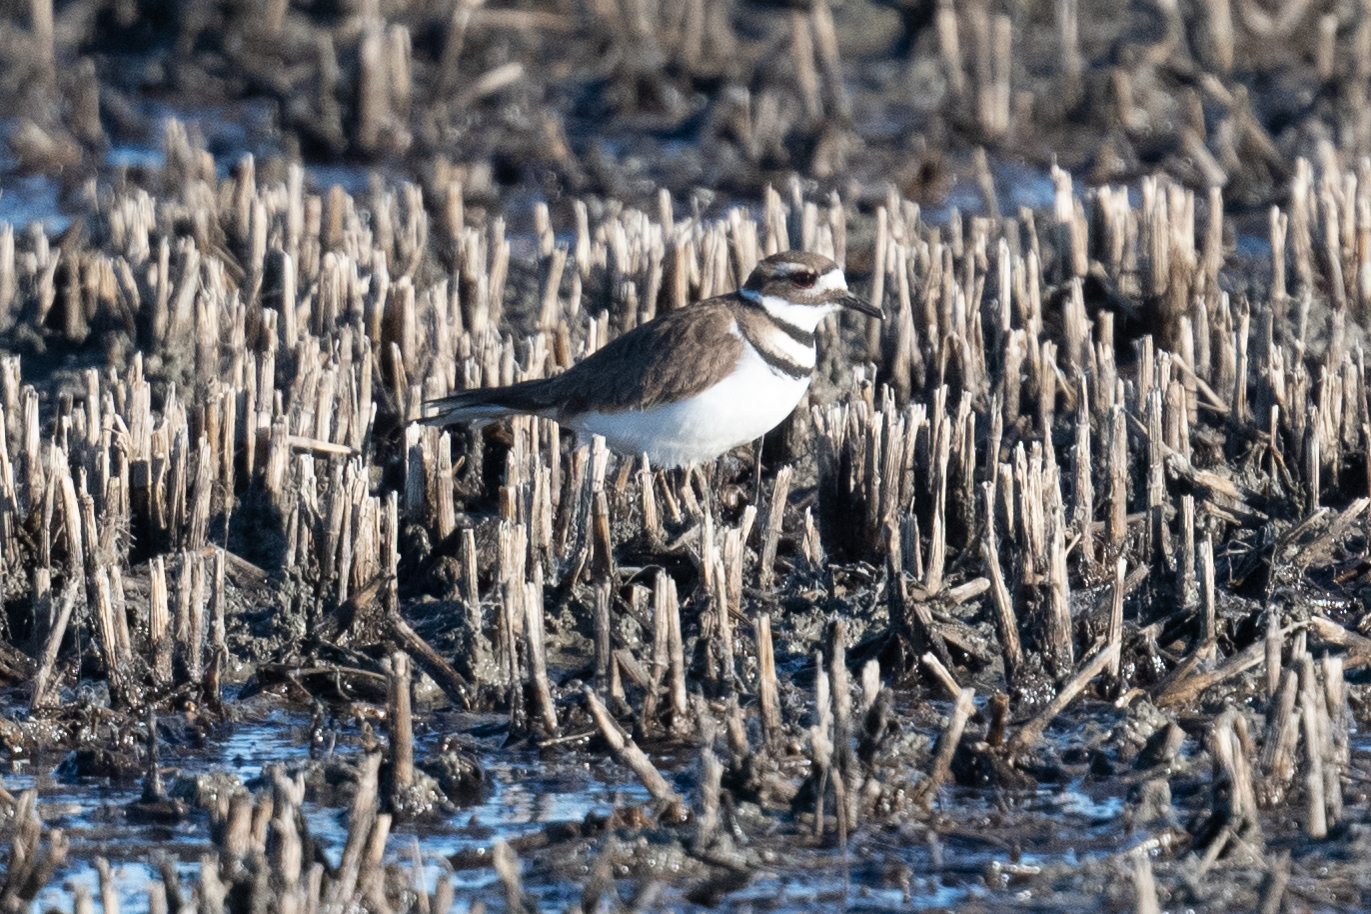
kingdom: Animalia
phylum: Chordata
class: Aves
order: Charadriiformes
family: Charadriidae
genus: Charadrius
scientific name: Charadrius vociferus
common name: Killdeer
